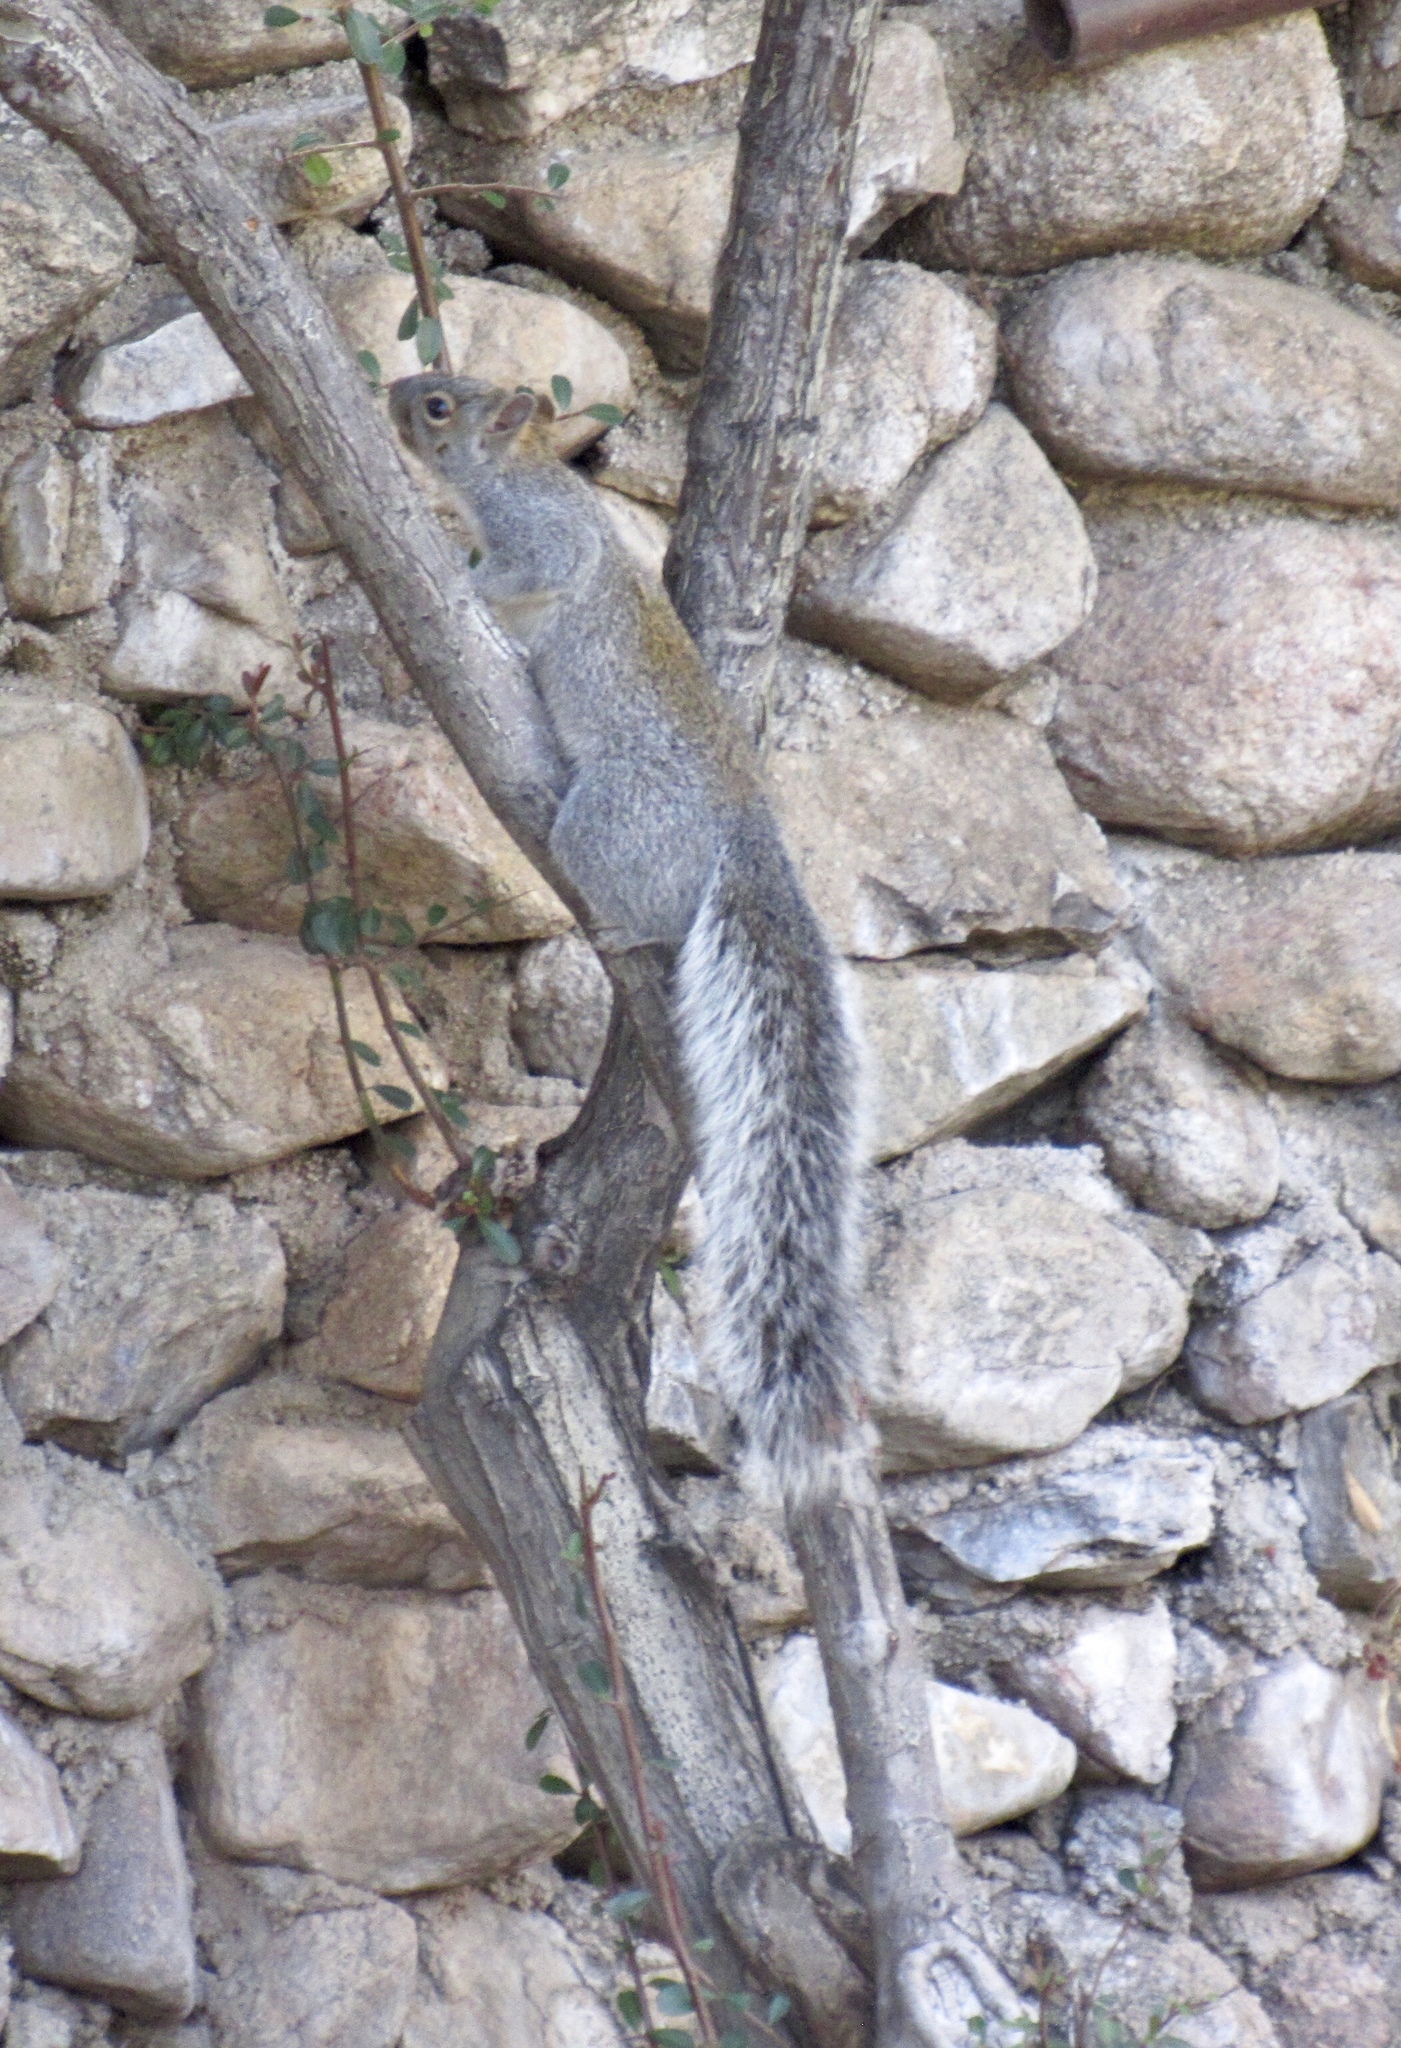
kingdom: Animalia
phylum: Chordata
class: Mammalia
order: Rodentia
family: Sciuridae
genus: Sciurus
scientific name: Sciurus arizonensis
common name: Arizona gray squirrel
